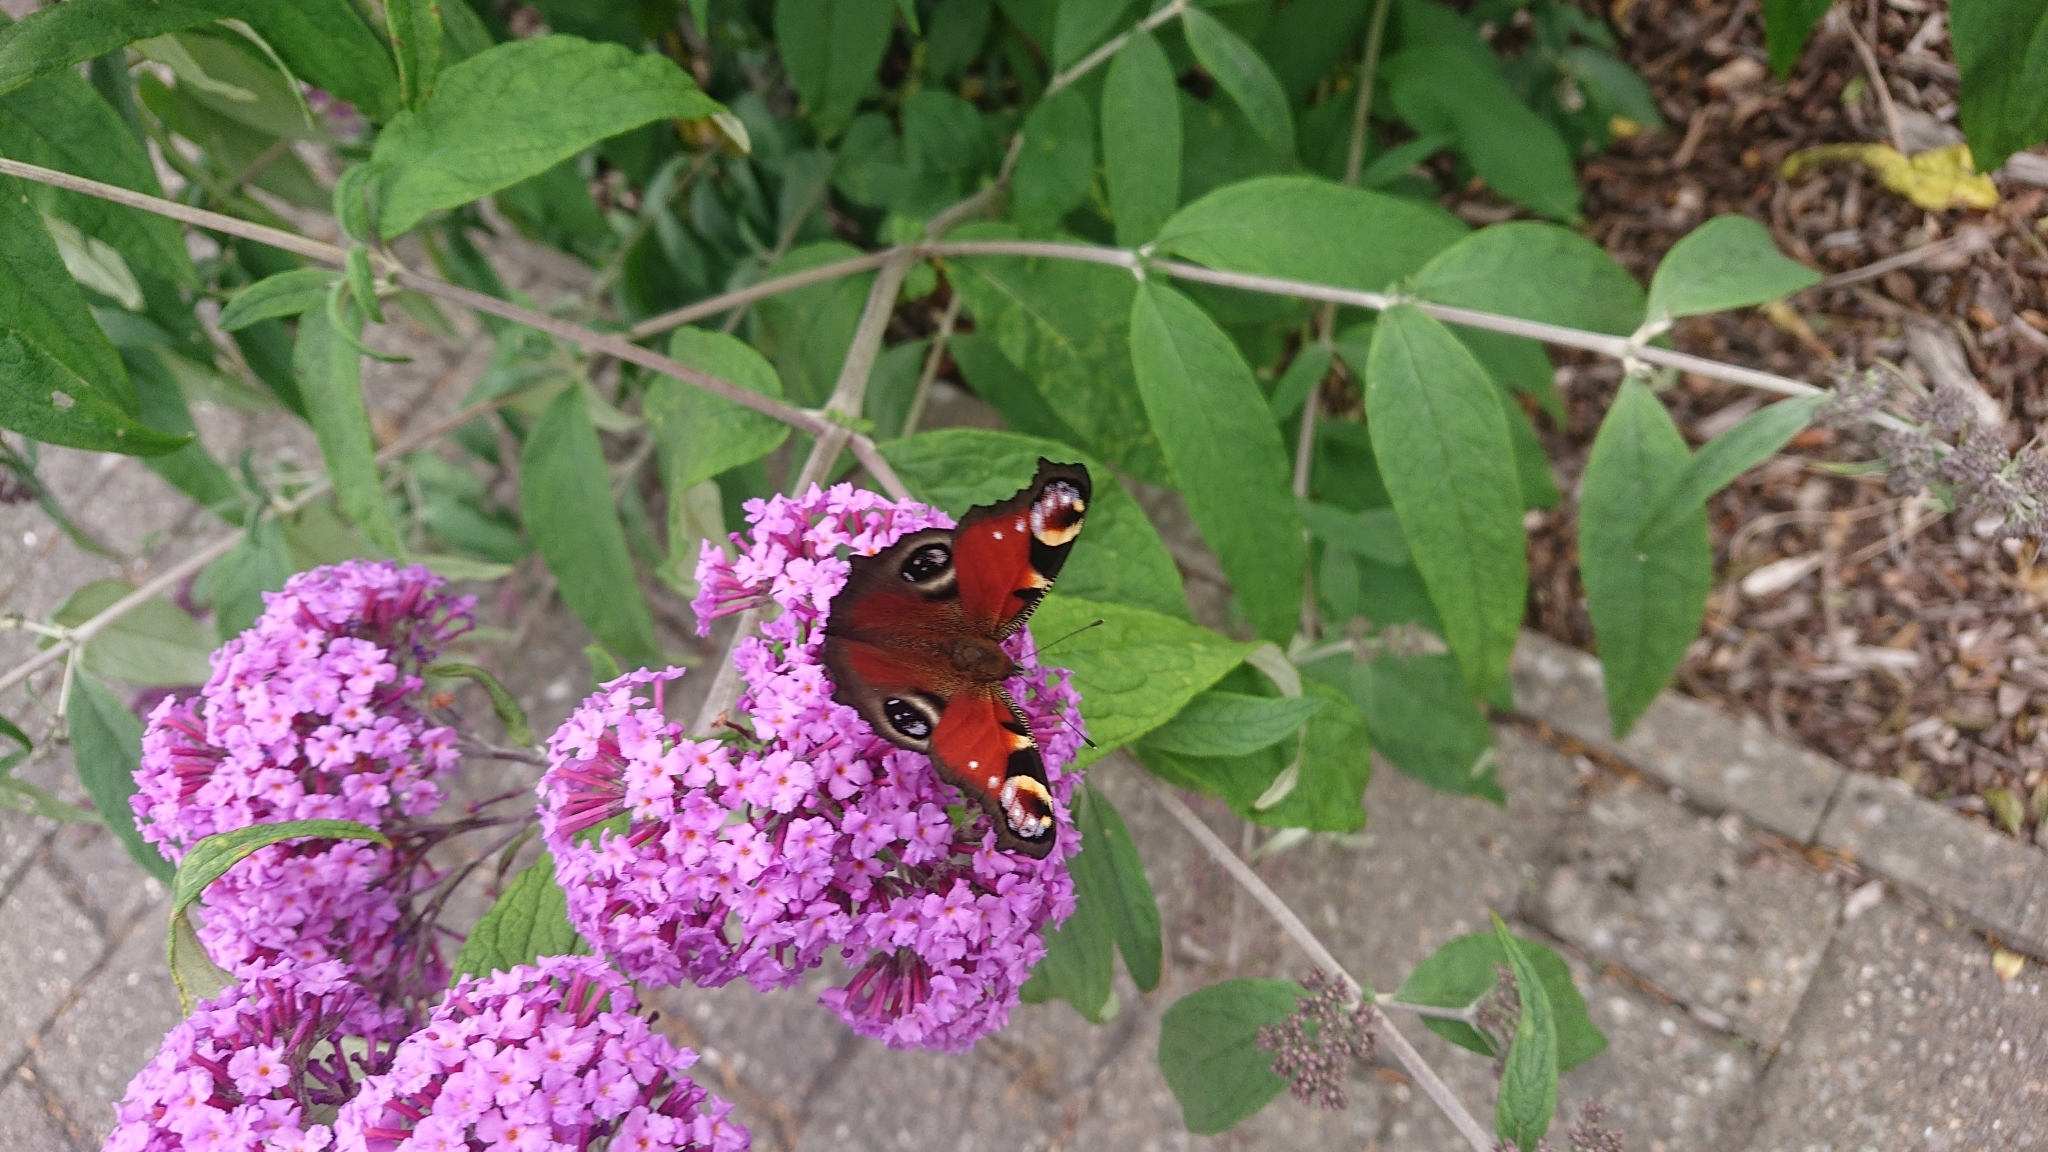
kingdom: Animalia
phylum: Arthropoda
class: Insecta
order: Lepidoptera
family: Nymphalidae
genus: Aglais
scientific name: Aglais io
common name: Peacock
